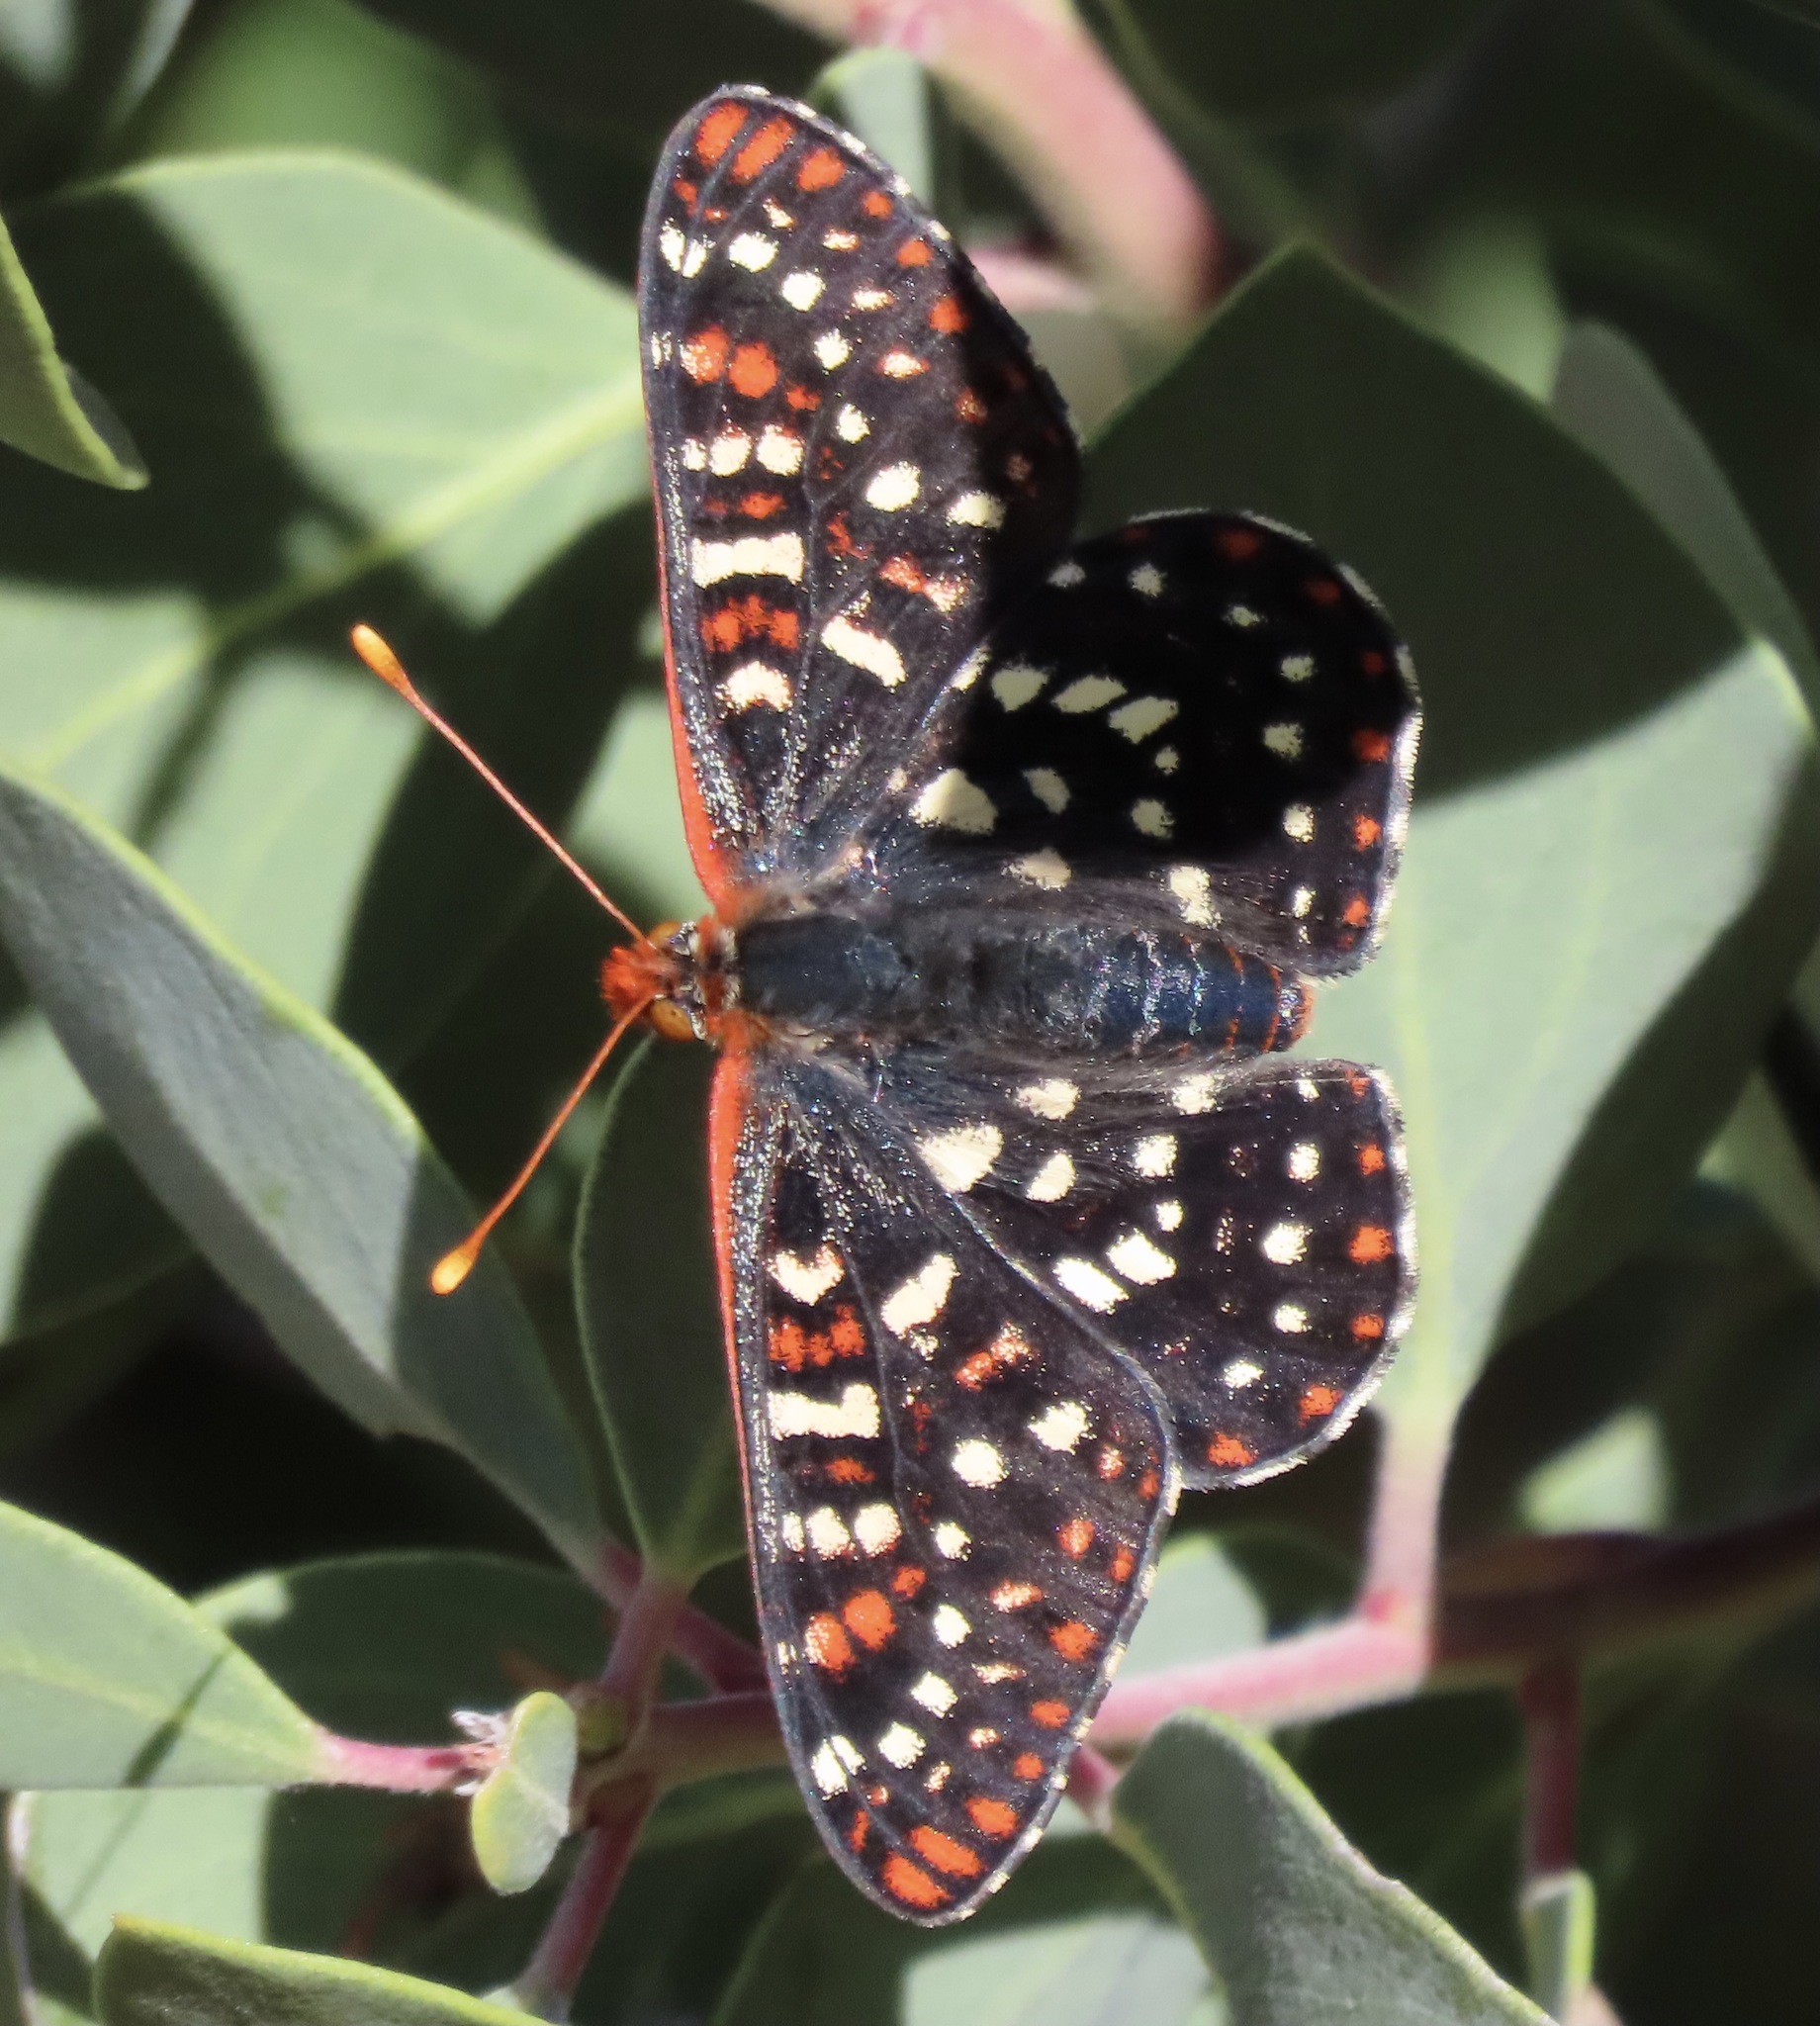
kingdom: Animalia
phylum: Arthropoda
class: Insecta
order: Lepidoptera
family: Nymphalidae
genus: Occidryas
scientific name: Occidryas chalcedona
